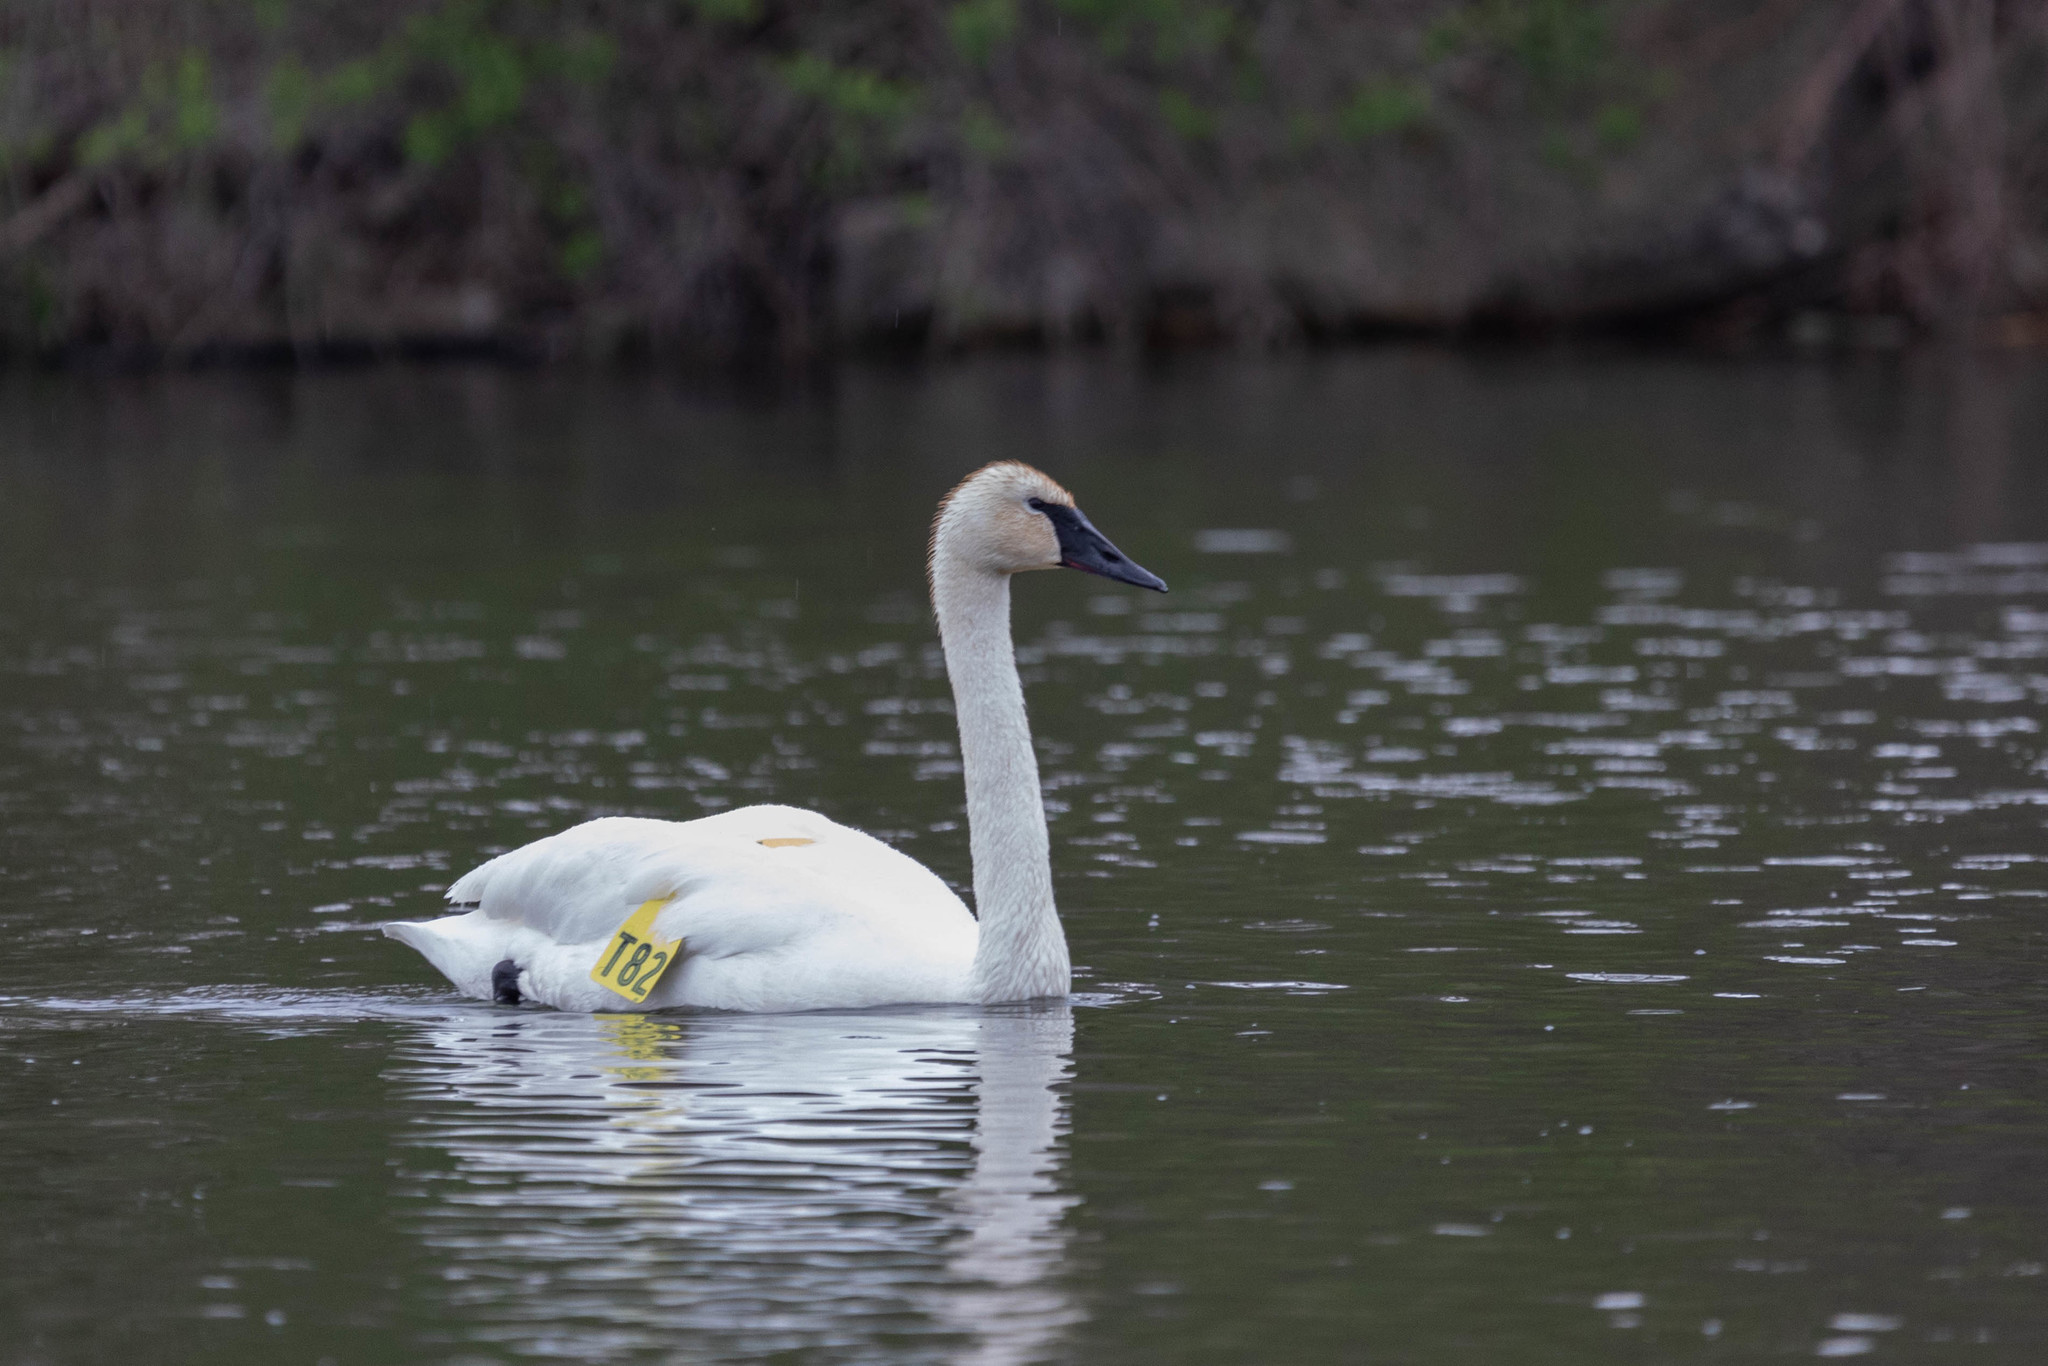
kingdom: Animalia
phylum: Chordata
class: Aves
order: Anseriformes
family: Anatidae
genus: Cygnus
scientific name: Cygnus buccinator
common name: Trumpeter swan
